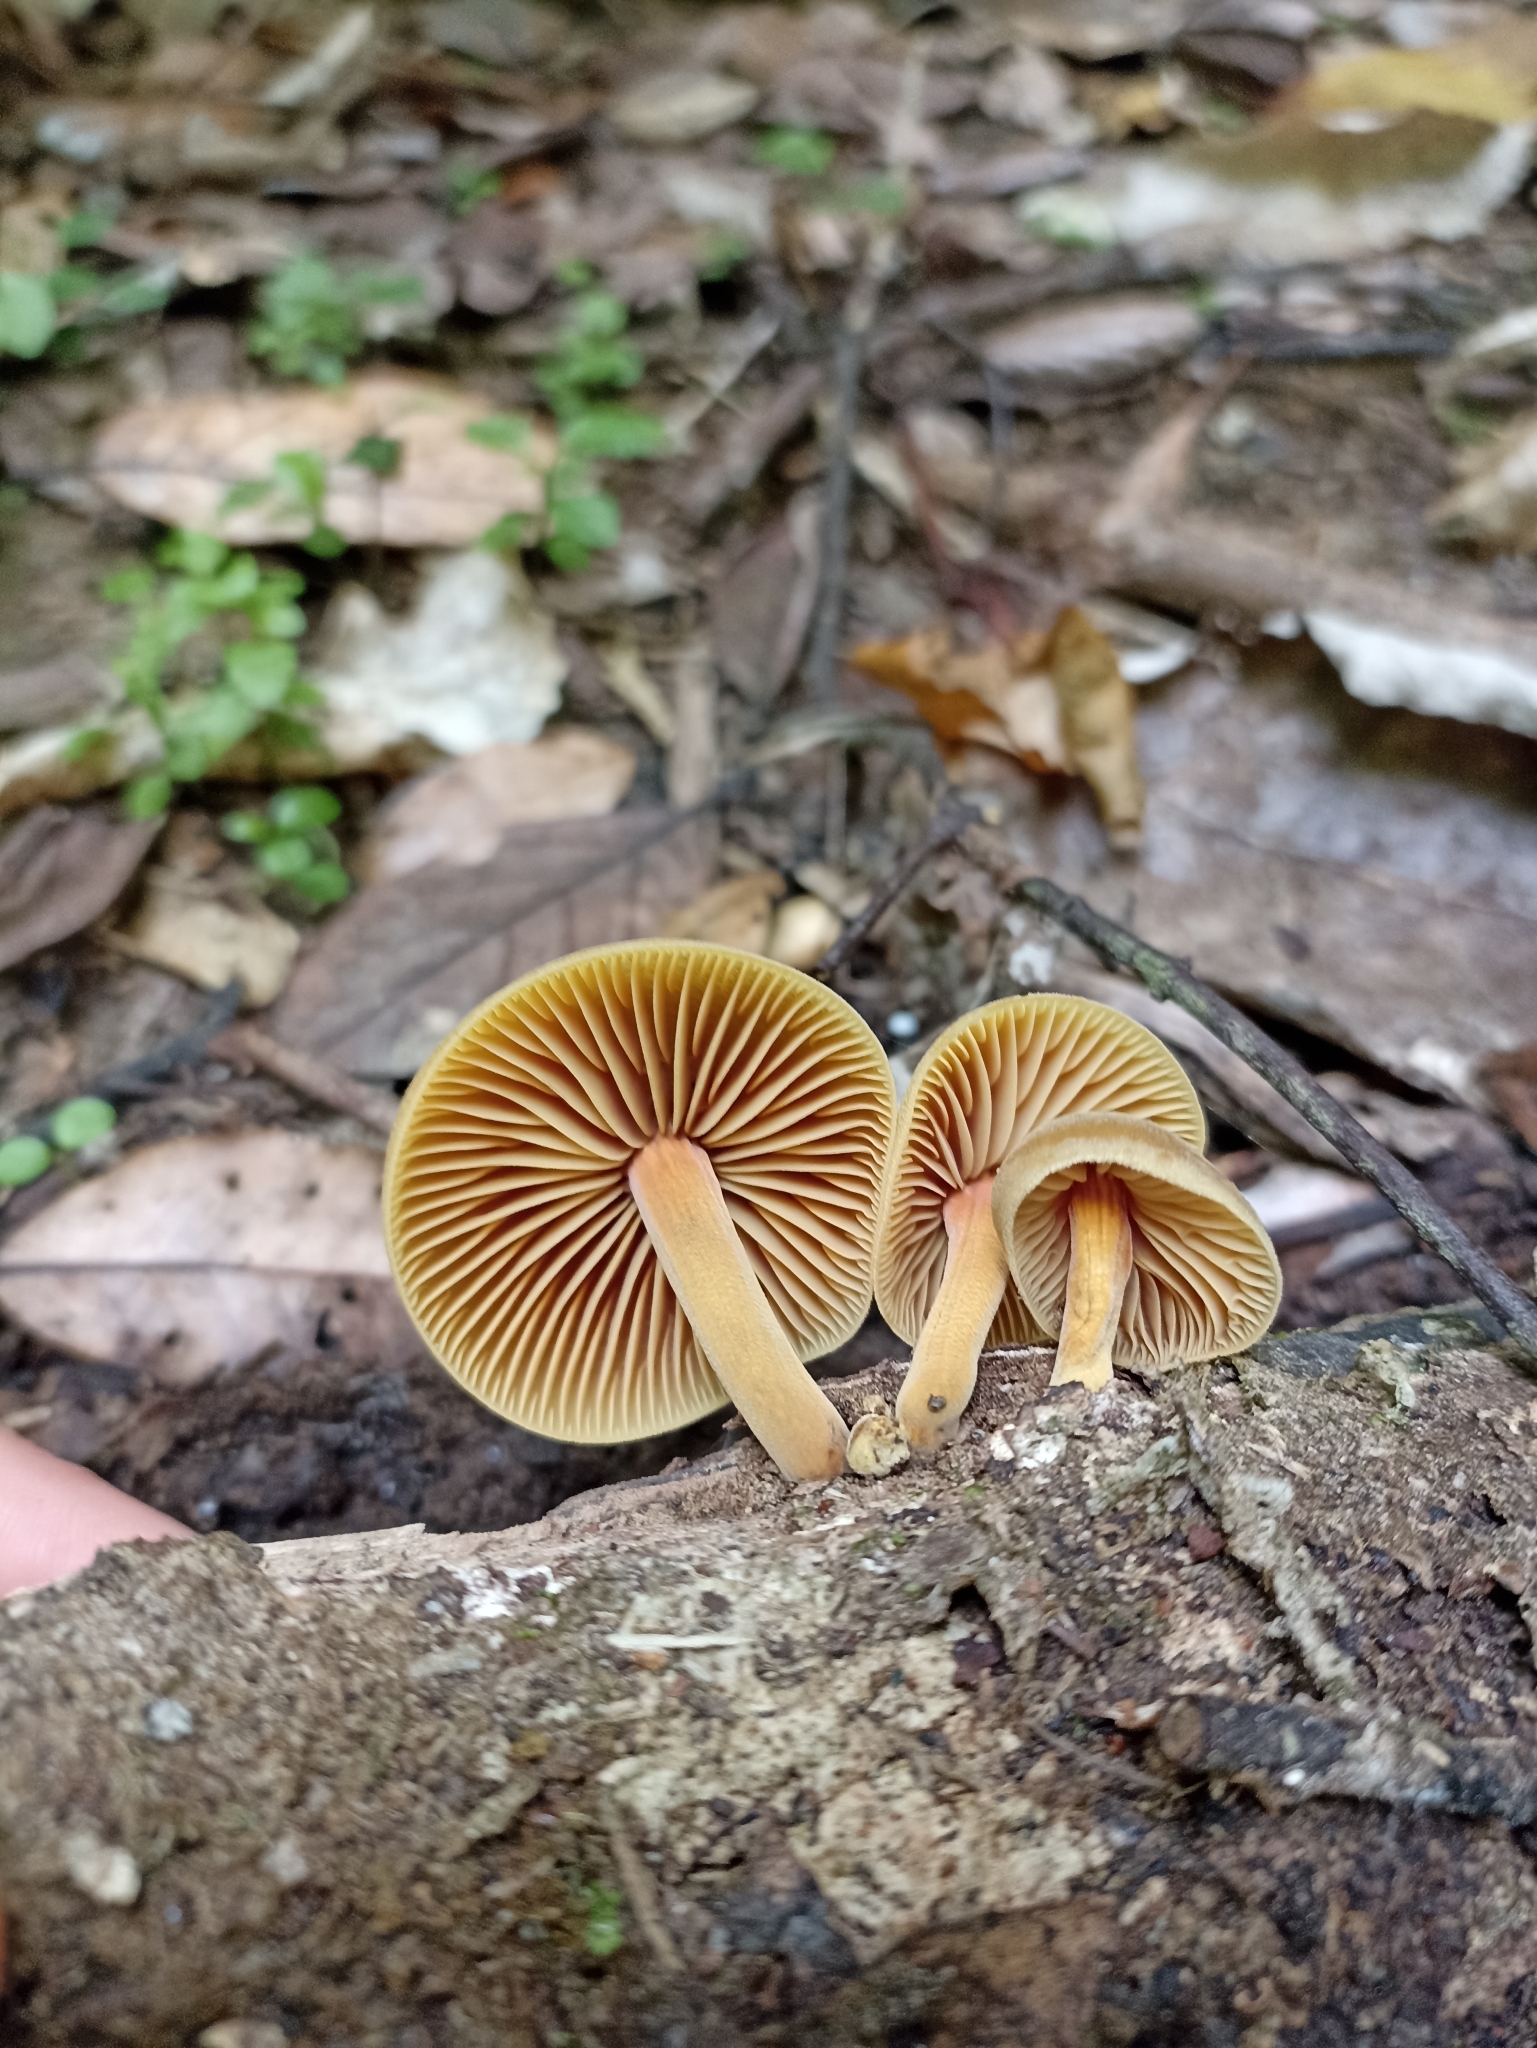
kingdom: Fungi
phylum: Basidiomycota
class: Agaricomycetes
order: Agaricales
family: Mycenaceae
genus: Heimiomyces
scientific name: Heimiomyces velutipes
